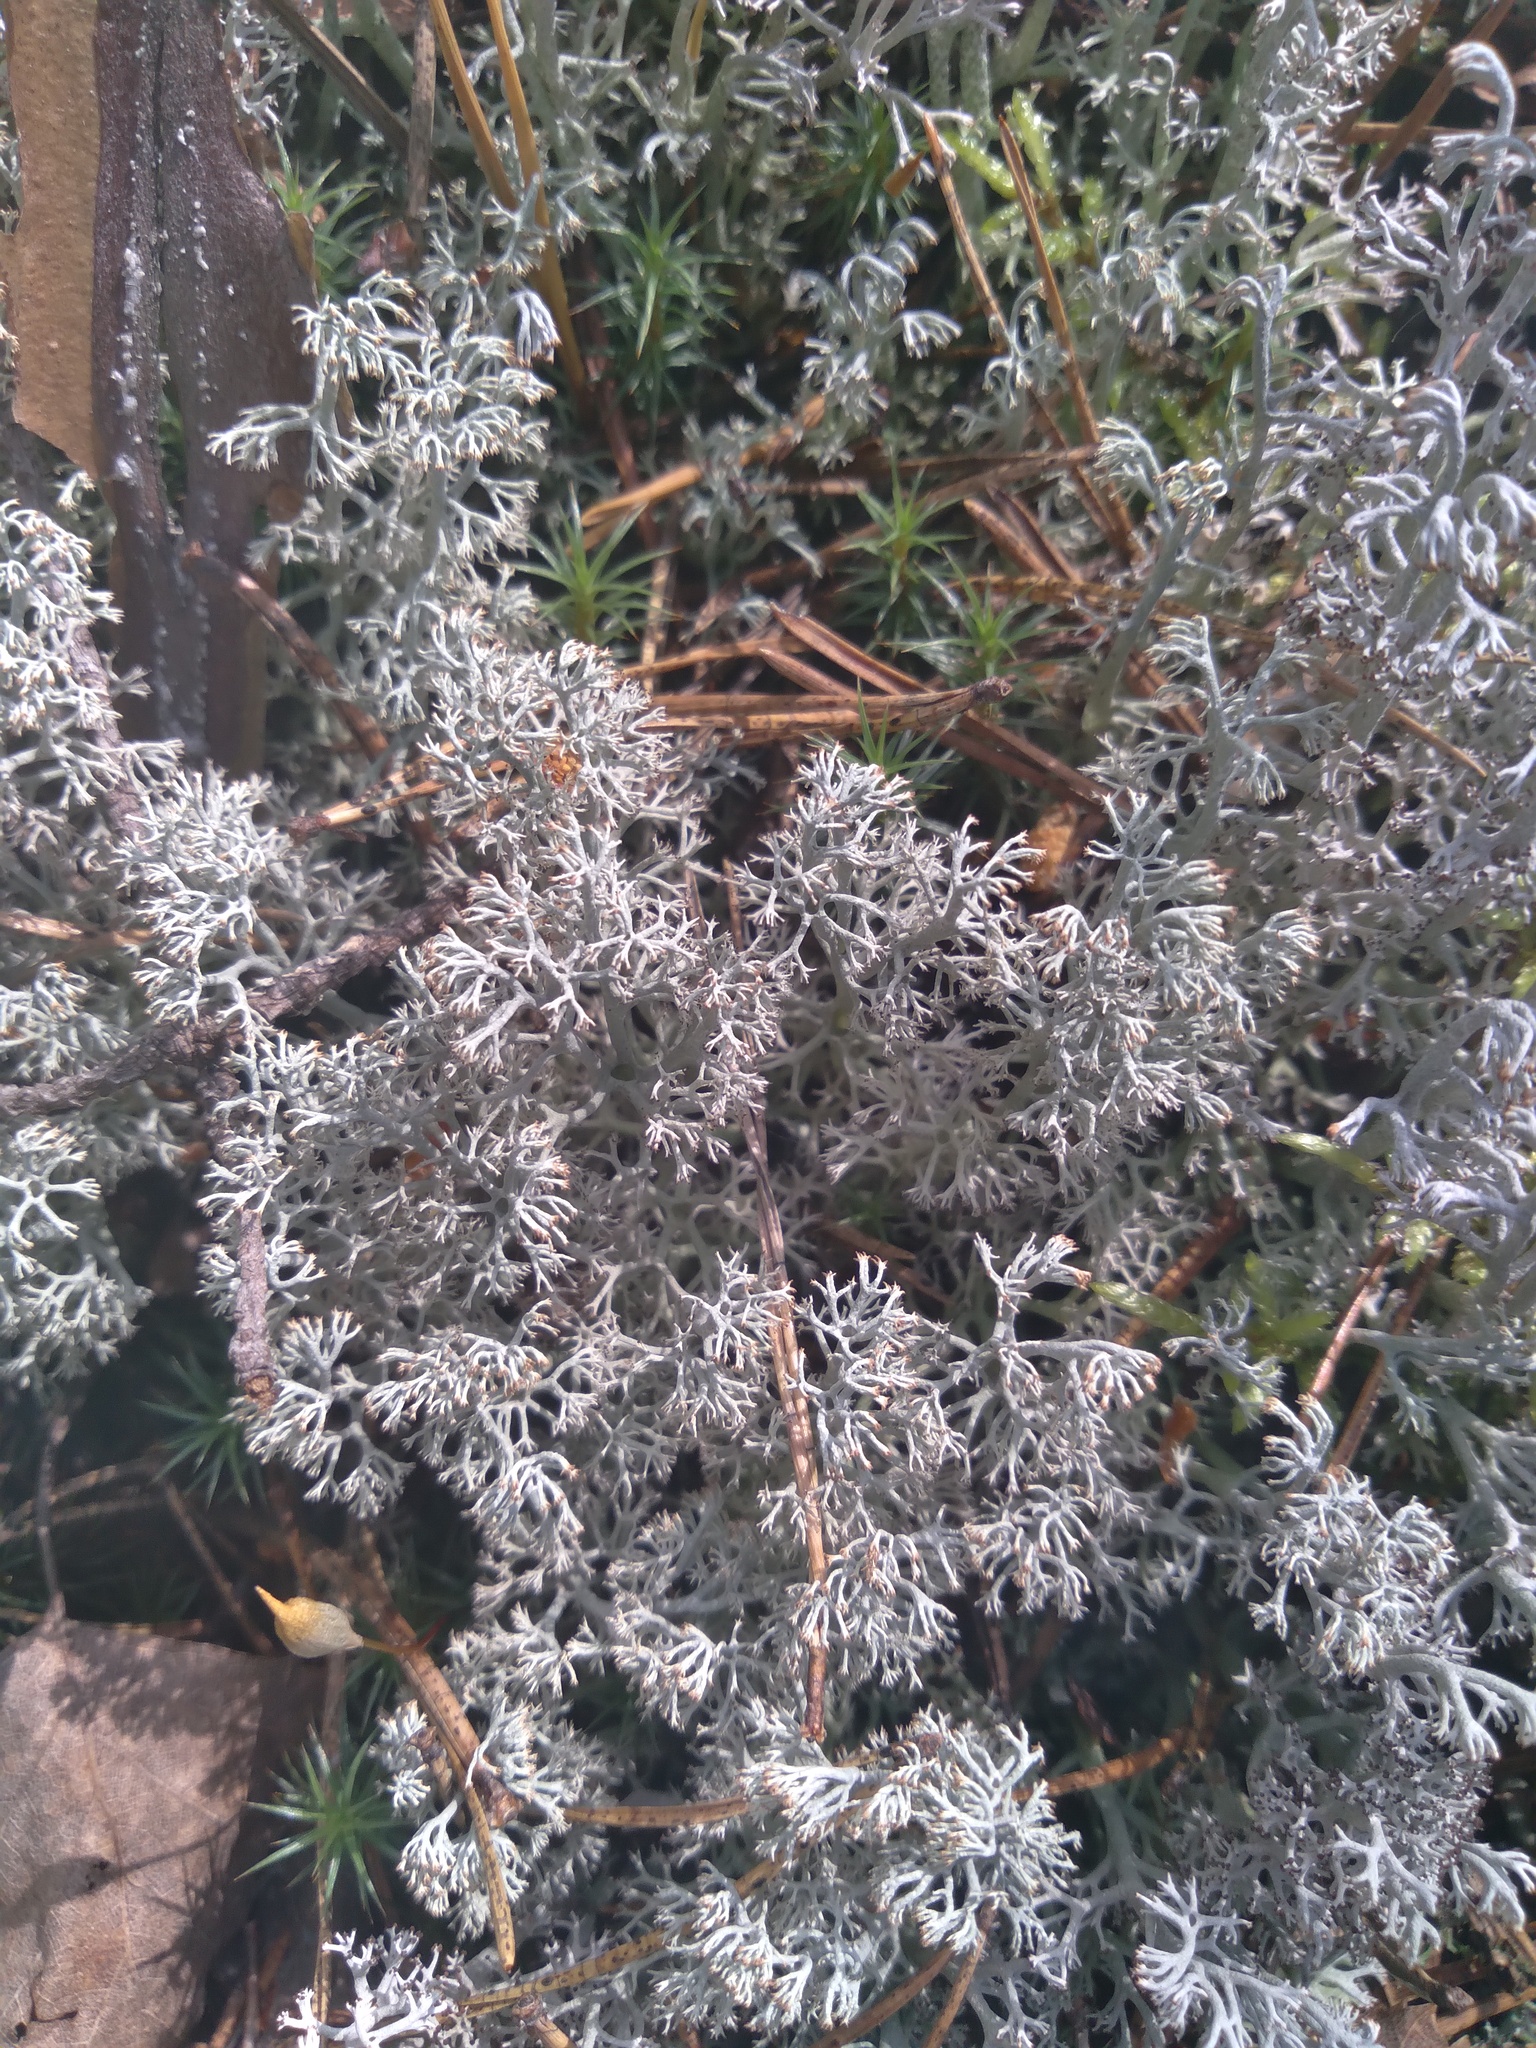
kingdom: Fungi
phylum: Ascomycota
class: Lecanoromycetes
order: Lecanorales
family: Cladoniaceae
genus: Cladonia
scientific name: Cladonia arbuscula
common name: Reindeer lichen
